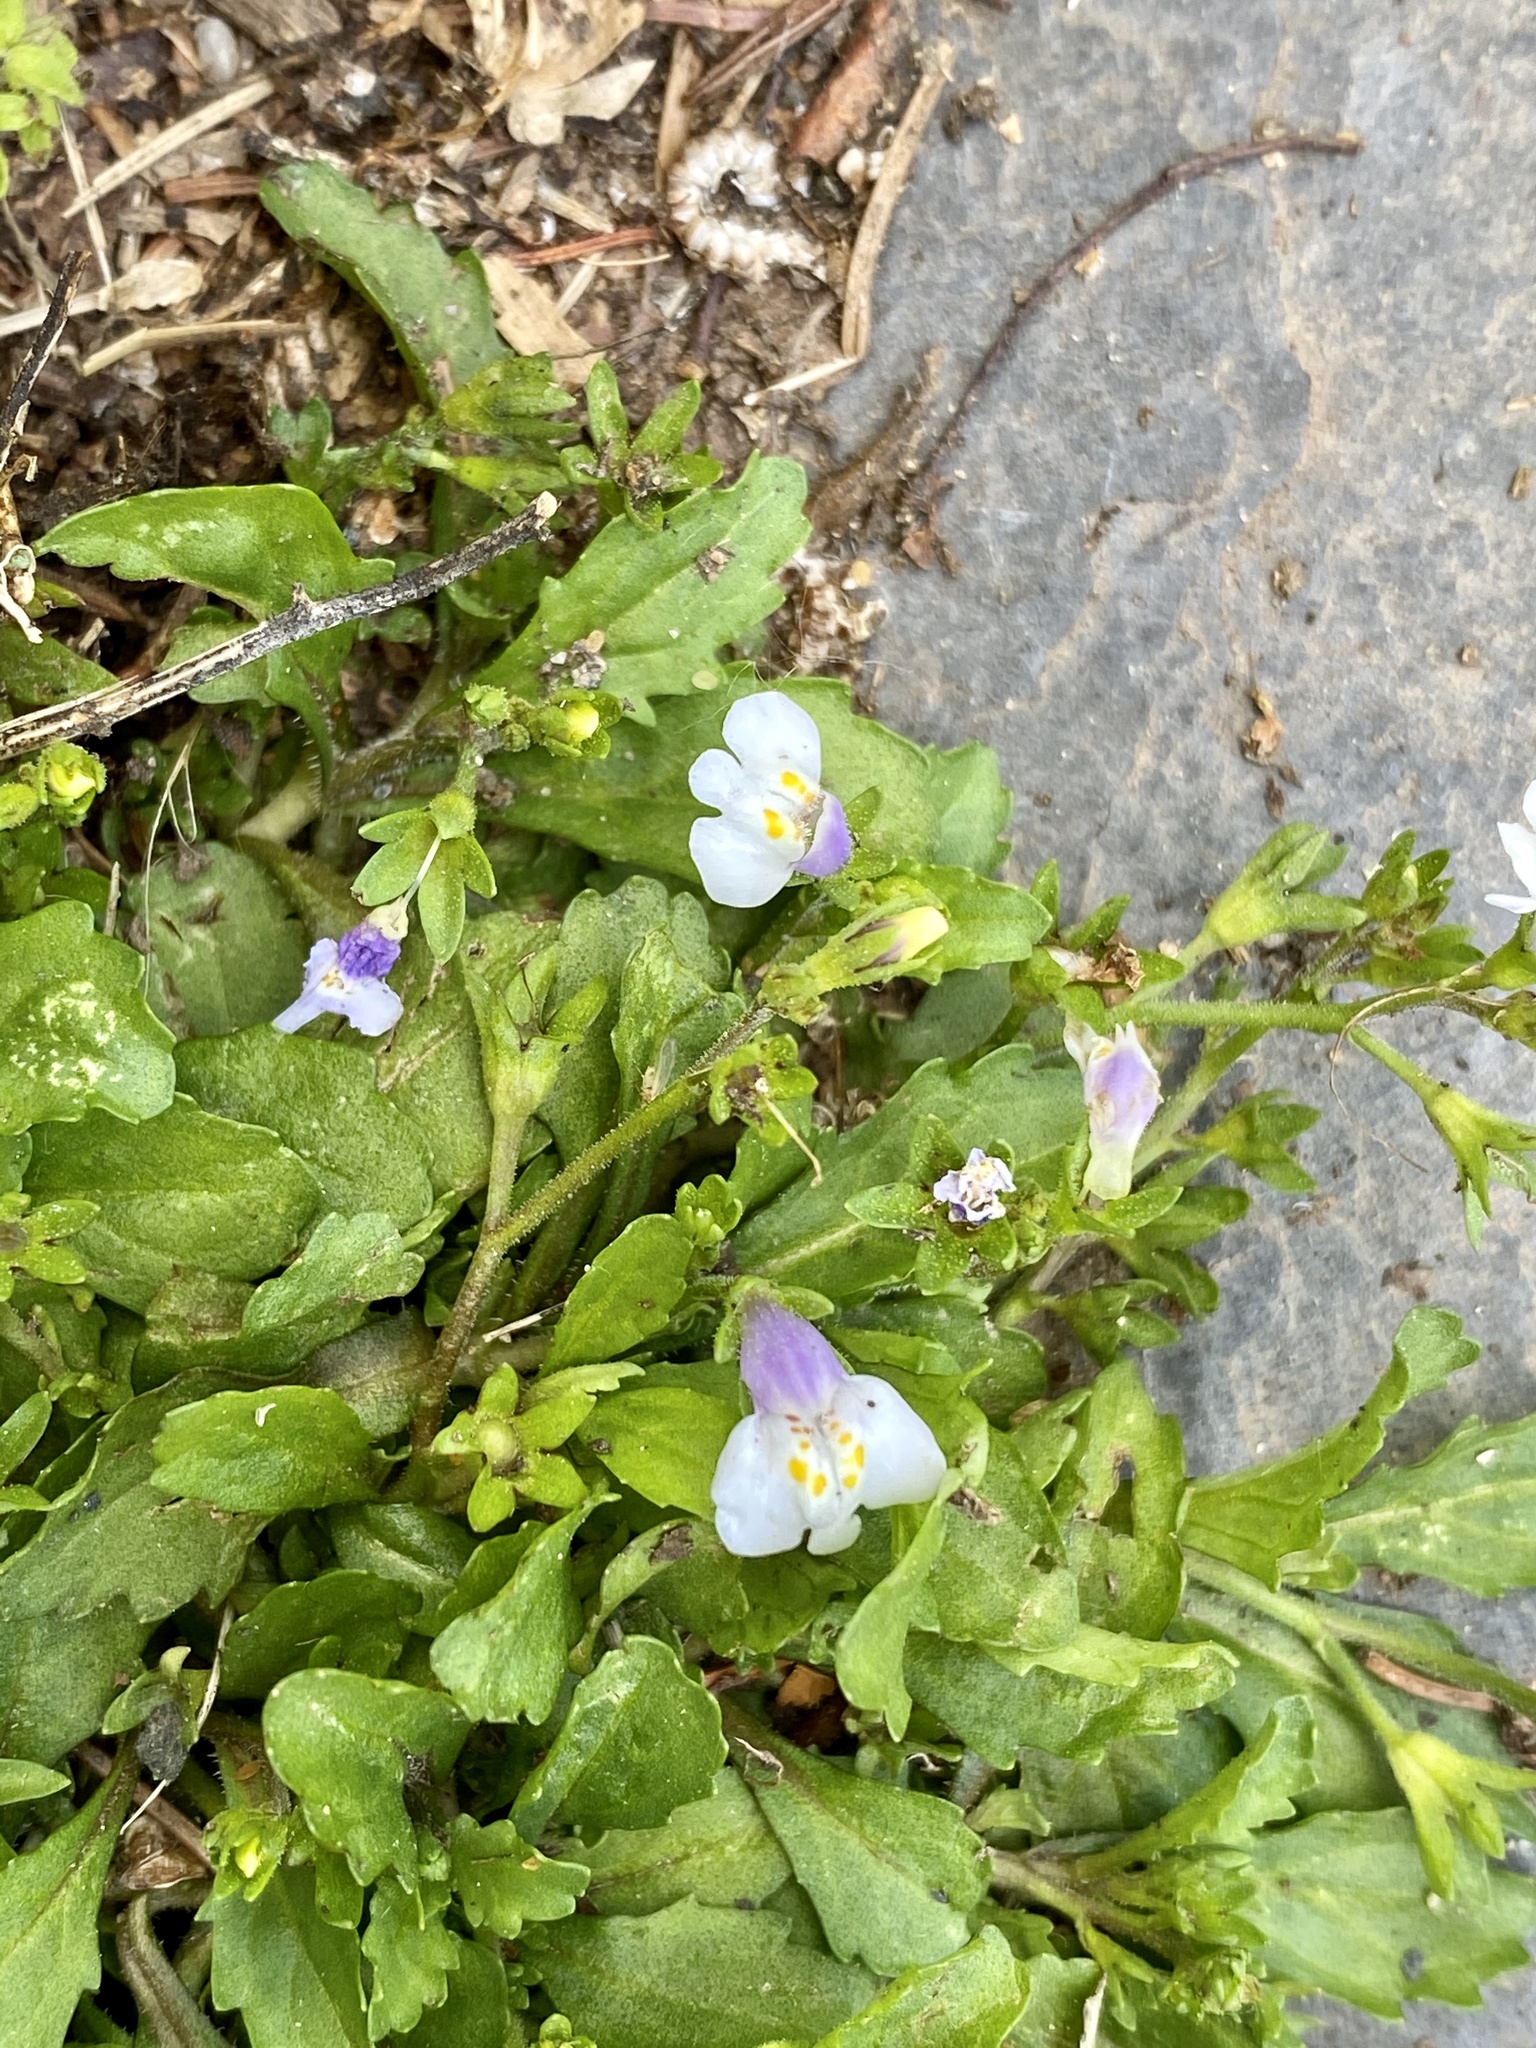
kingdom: Plantae
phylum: Tracheophyta
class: Magnoliopsida
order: Lamiales
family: Mazaceae
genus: Mazus
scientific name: Mazus pumilus
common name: Japanese mazus
